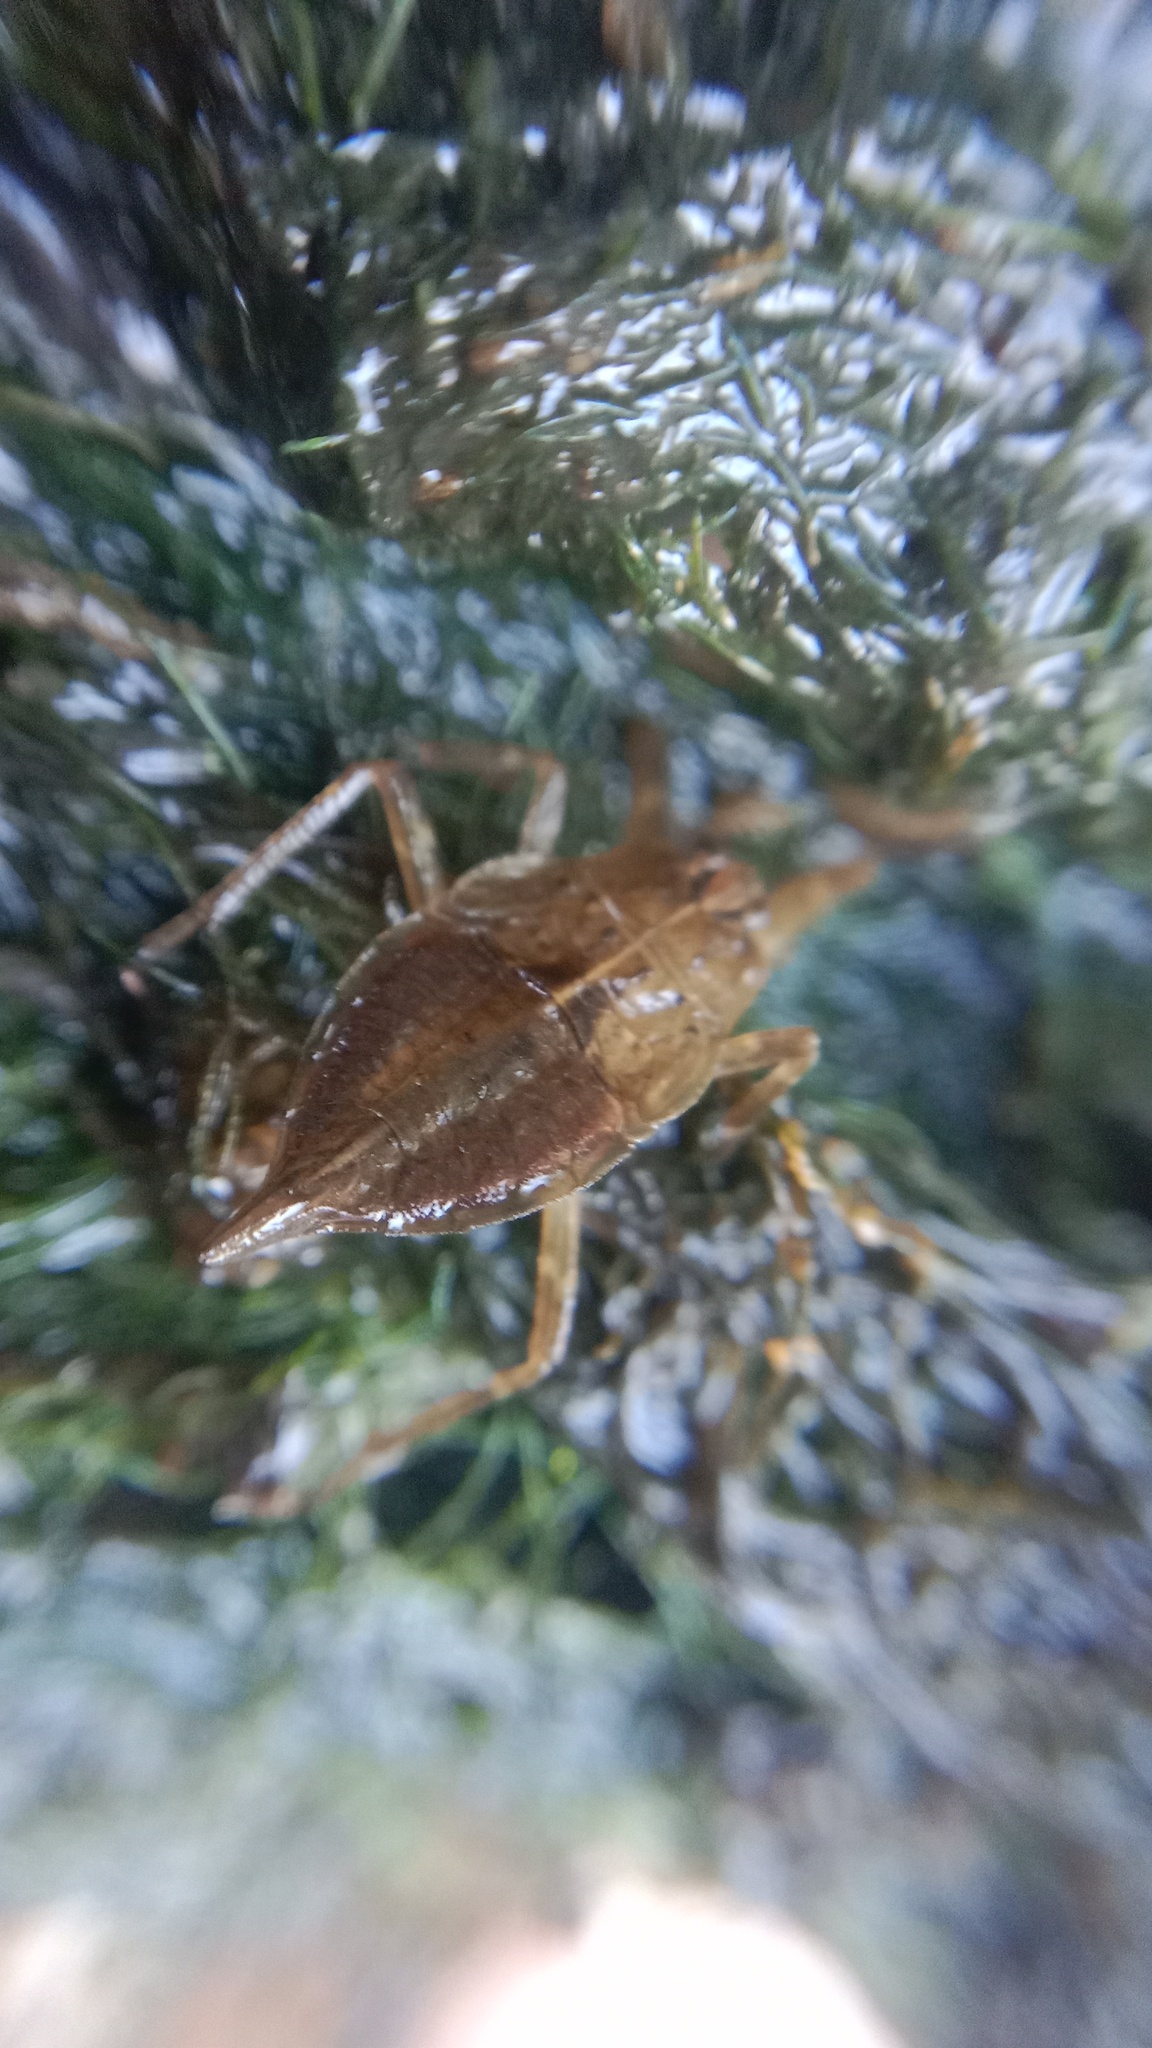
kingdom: Animalia
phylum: Arthropoda
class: Insecta
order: Hemiptera
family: Nepidae
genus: Nepa
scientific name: Nepa cinerea
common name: Water scorpion
